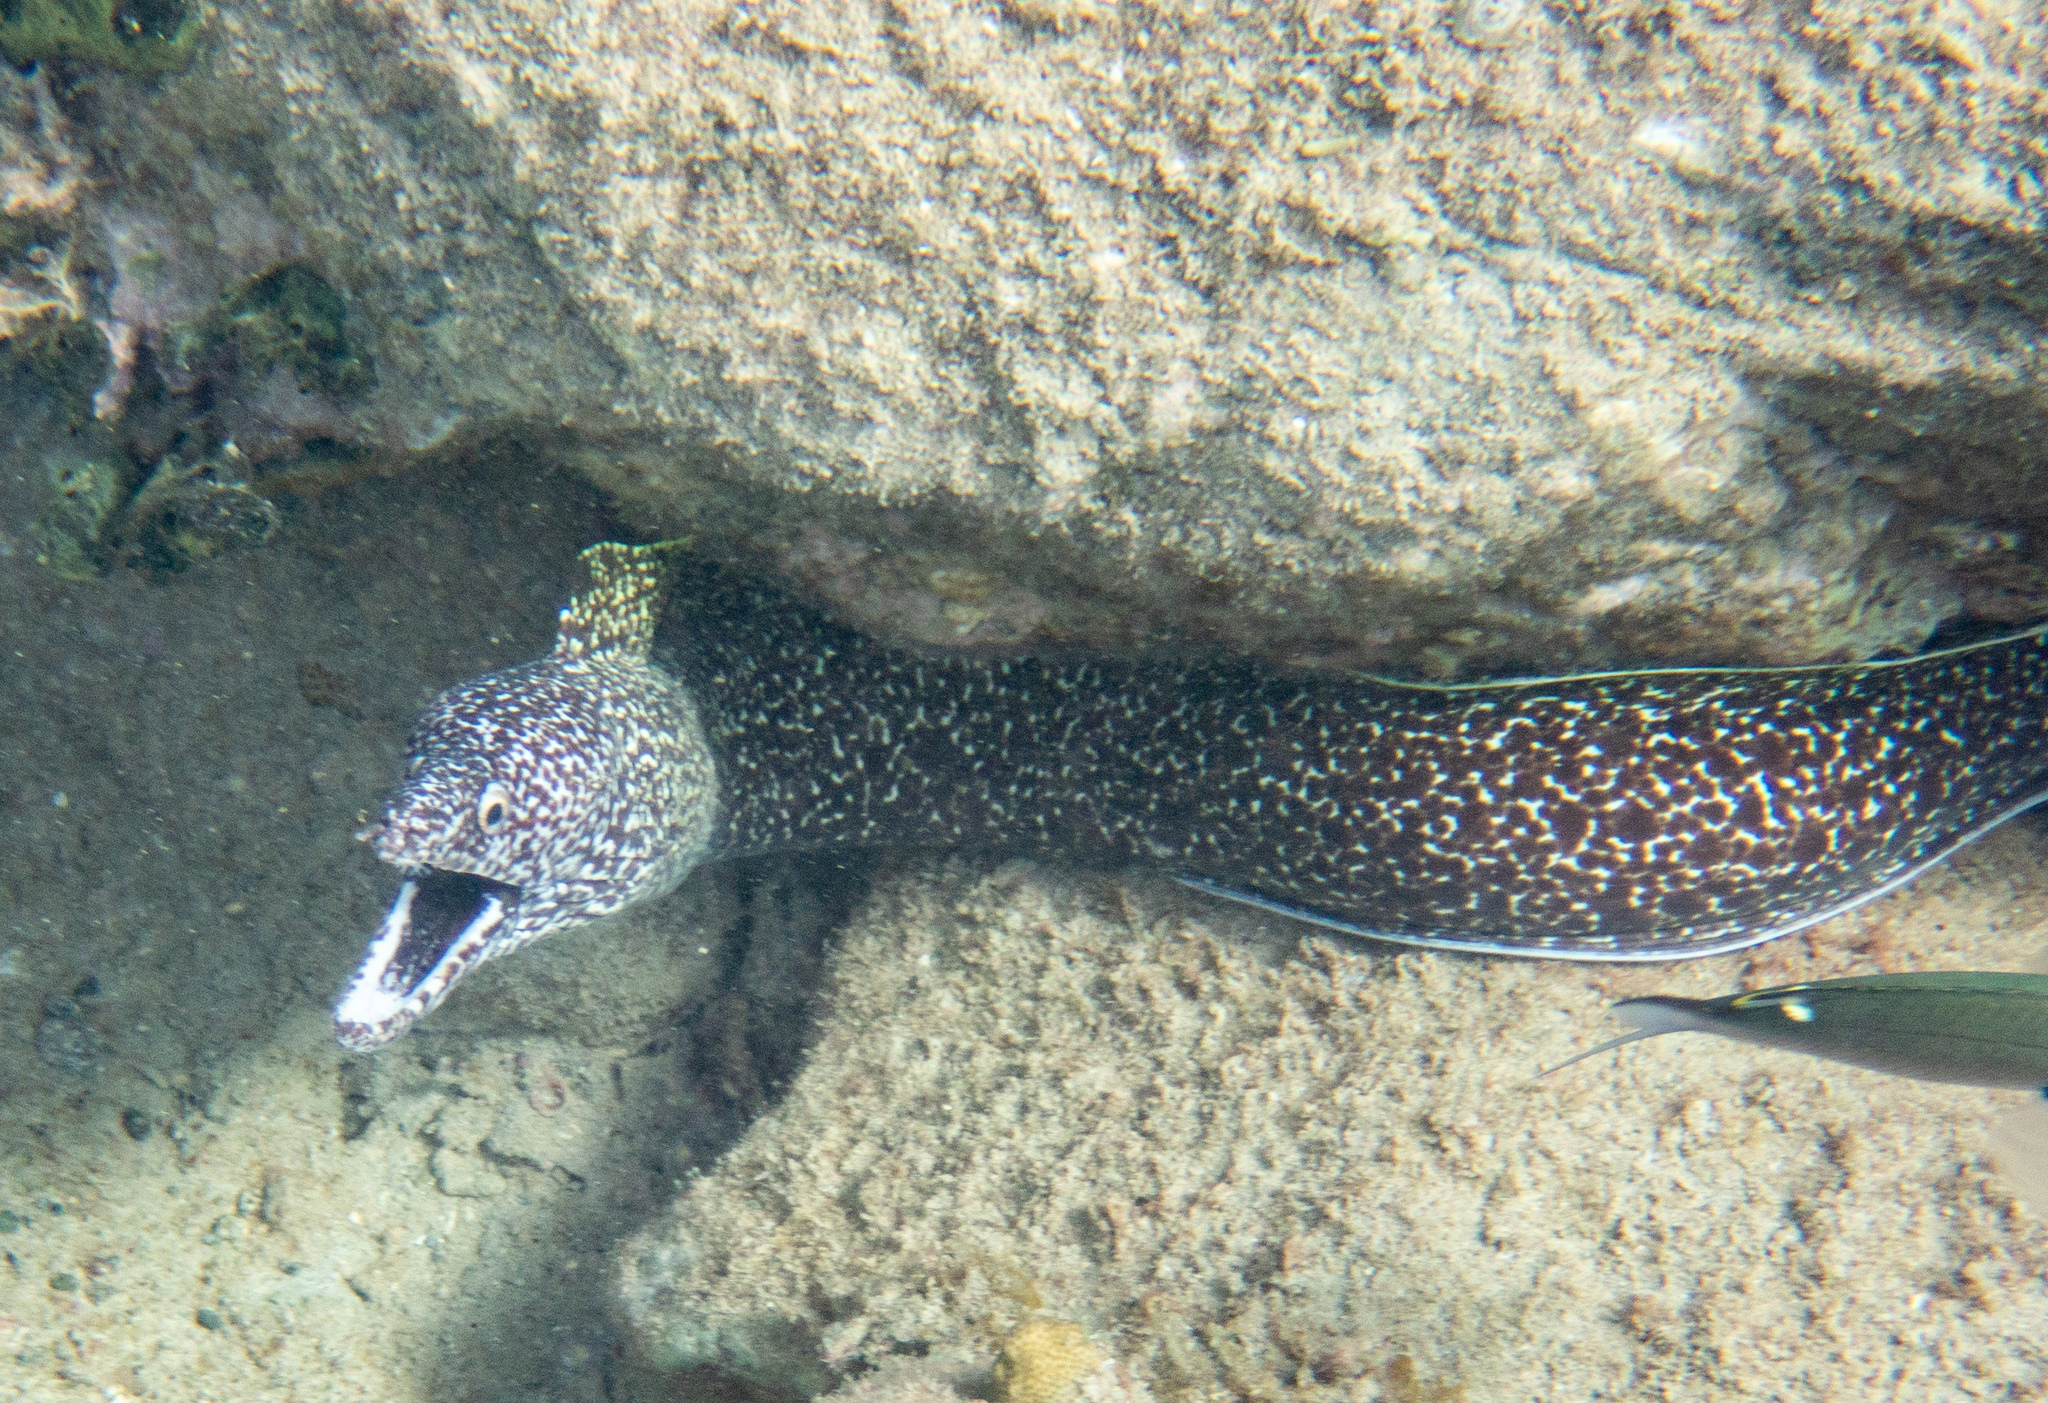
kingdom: Animalia
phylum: Chordata
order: Anguilliformes
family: Muraenidae
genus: Gymnothorax
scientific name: Gymnothorax moringa
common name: Spotted moray
